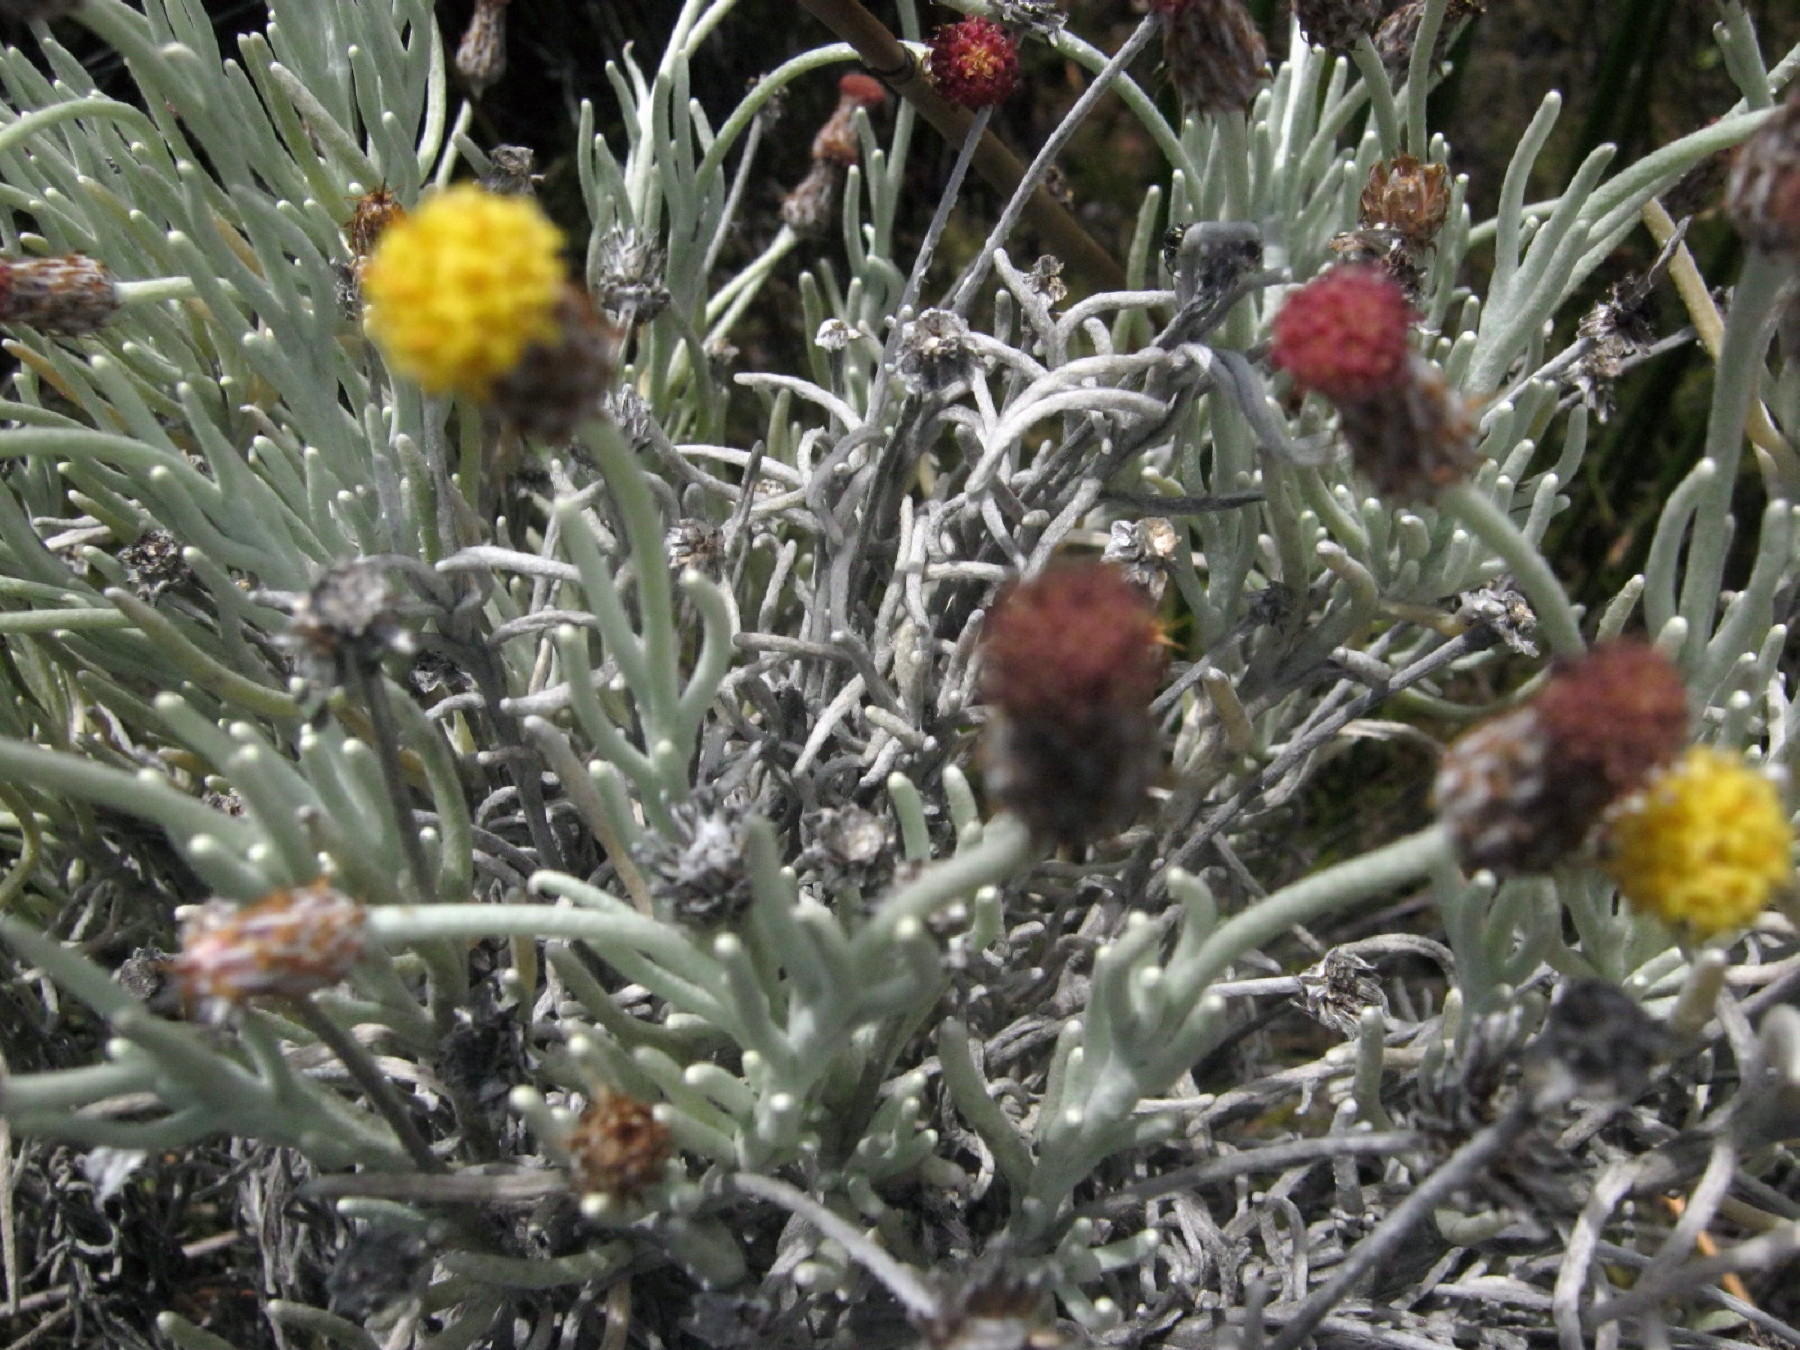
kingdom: Plantae
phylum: Tracheophyta
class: Magnoliopsida
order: Asterales
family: Asteraceae
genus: Syncarpha
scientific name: Syncarpha gnaphaloides
